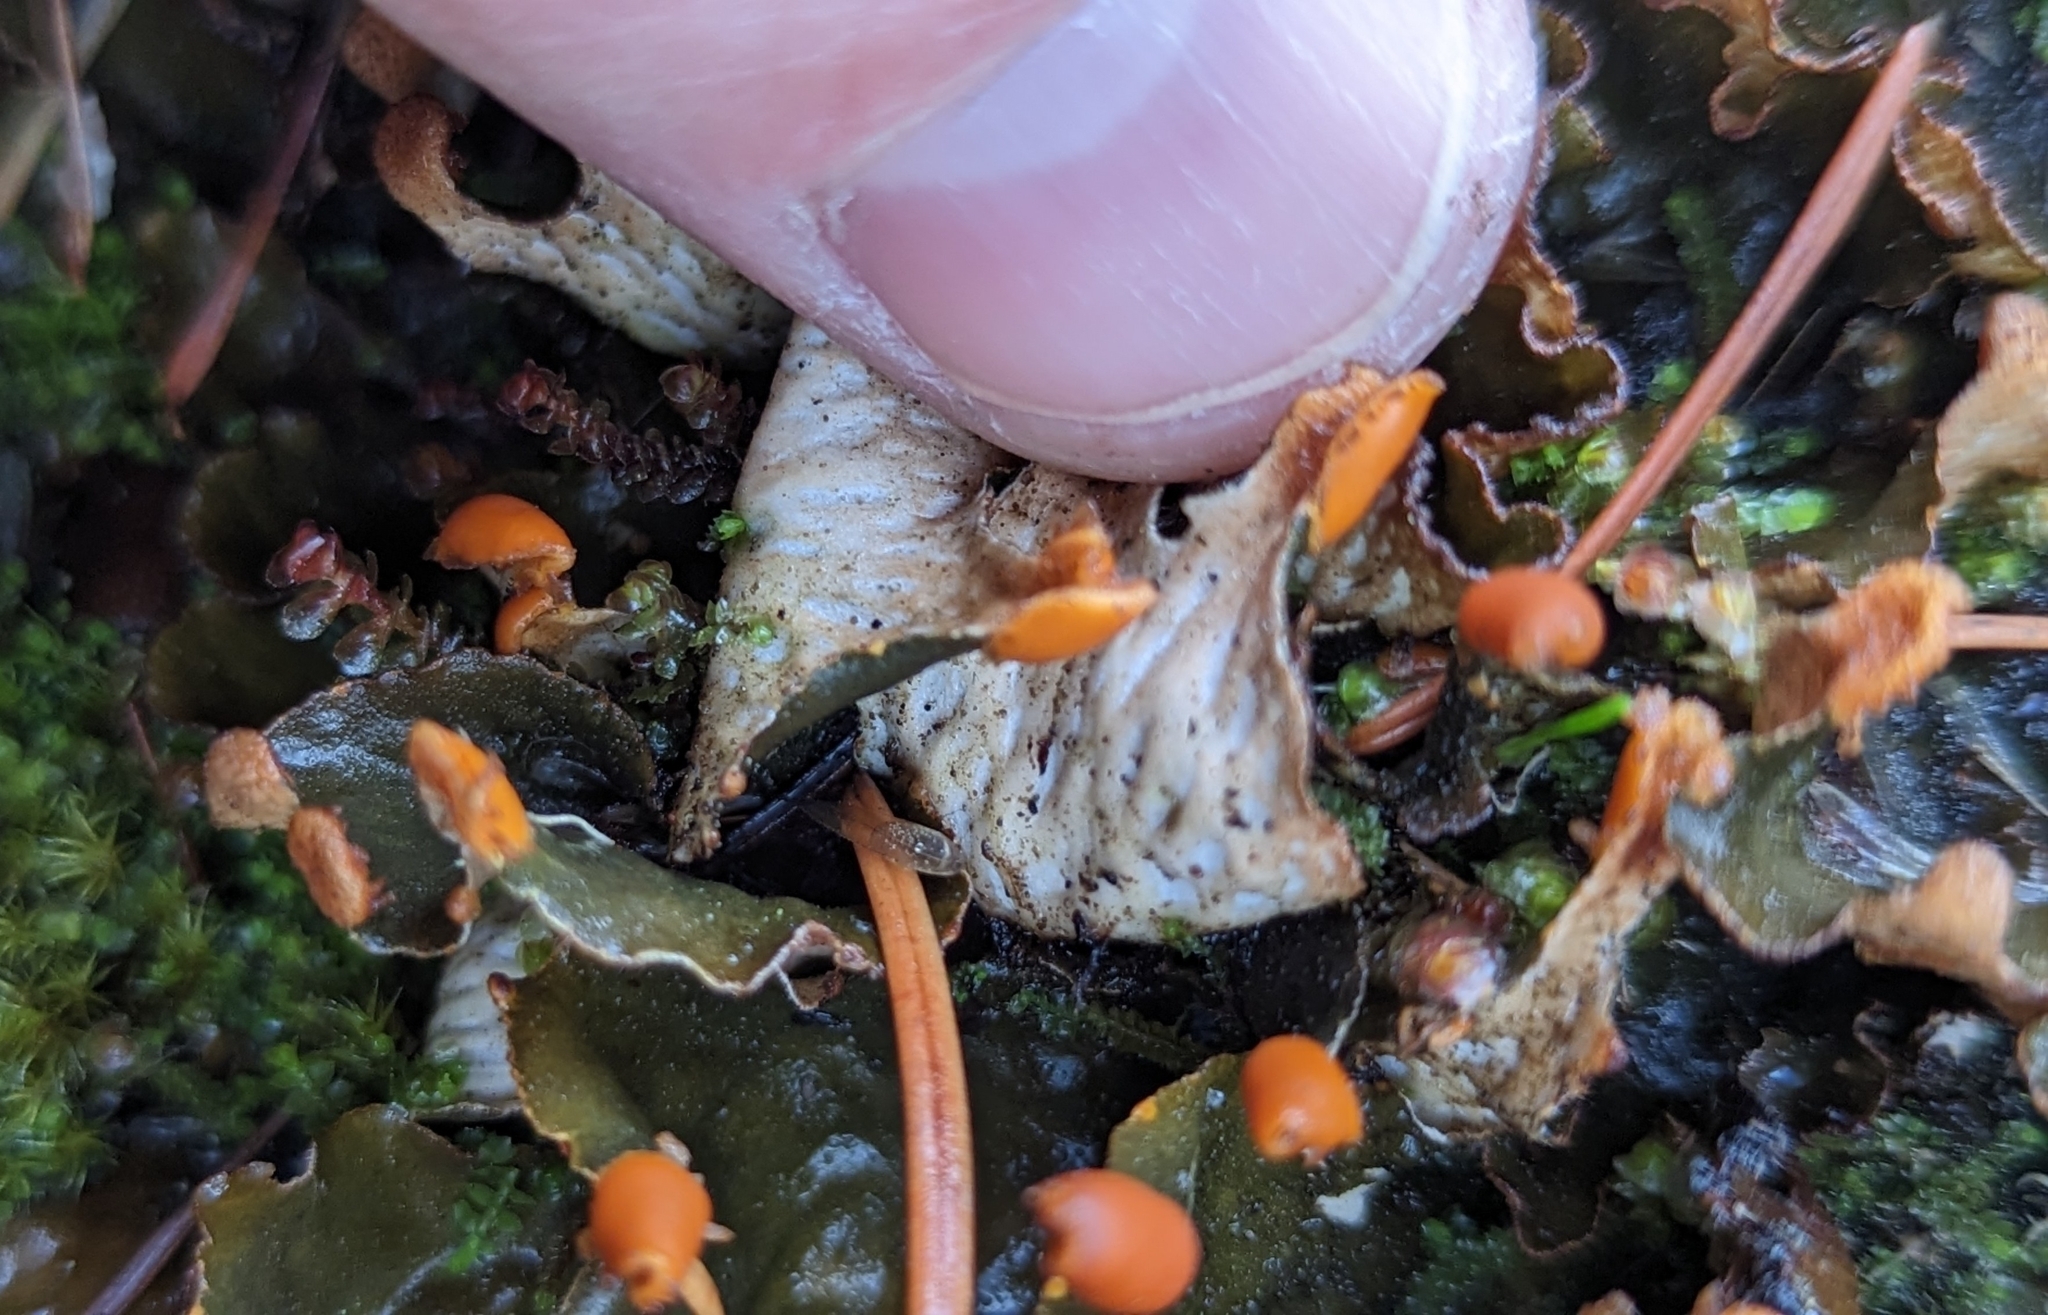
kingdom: Fungi
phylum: Ascomycota
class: Lecanoromycetes
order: Peltigerales
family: Peltigeraceae
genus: Peltigera
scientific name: Peltigera neopolydactyla
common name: Carpet pelt
